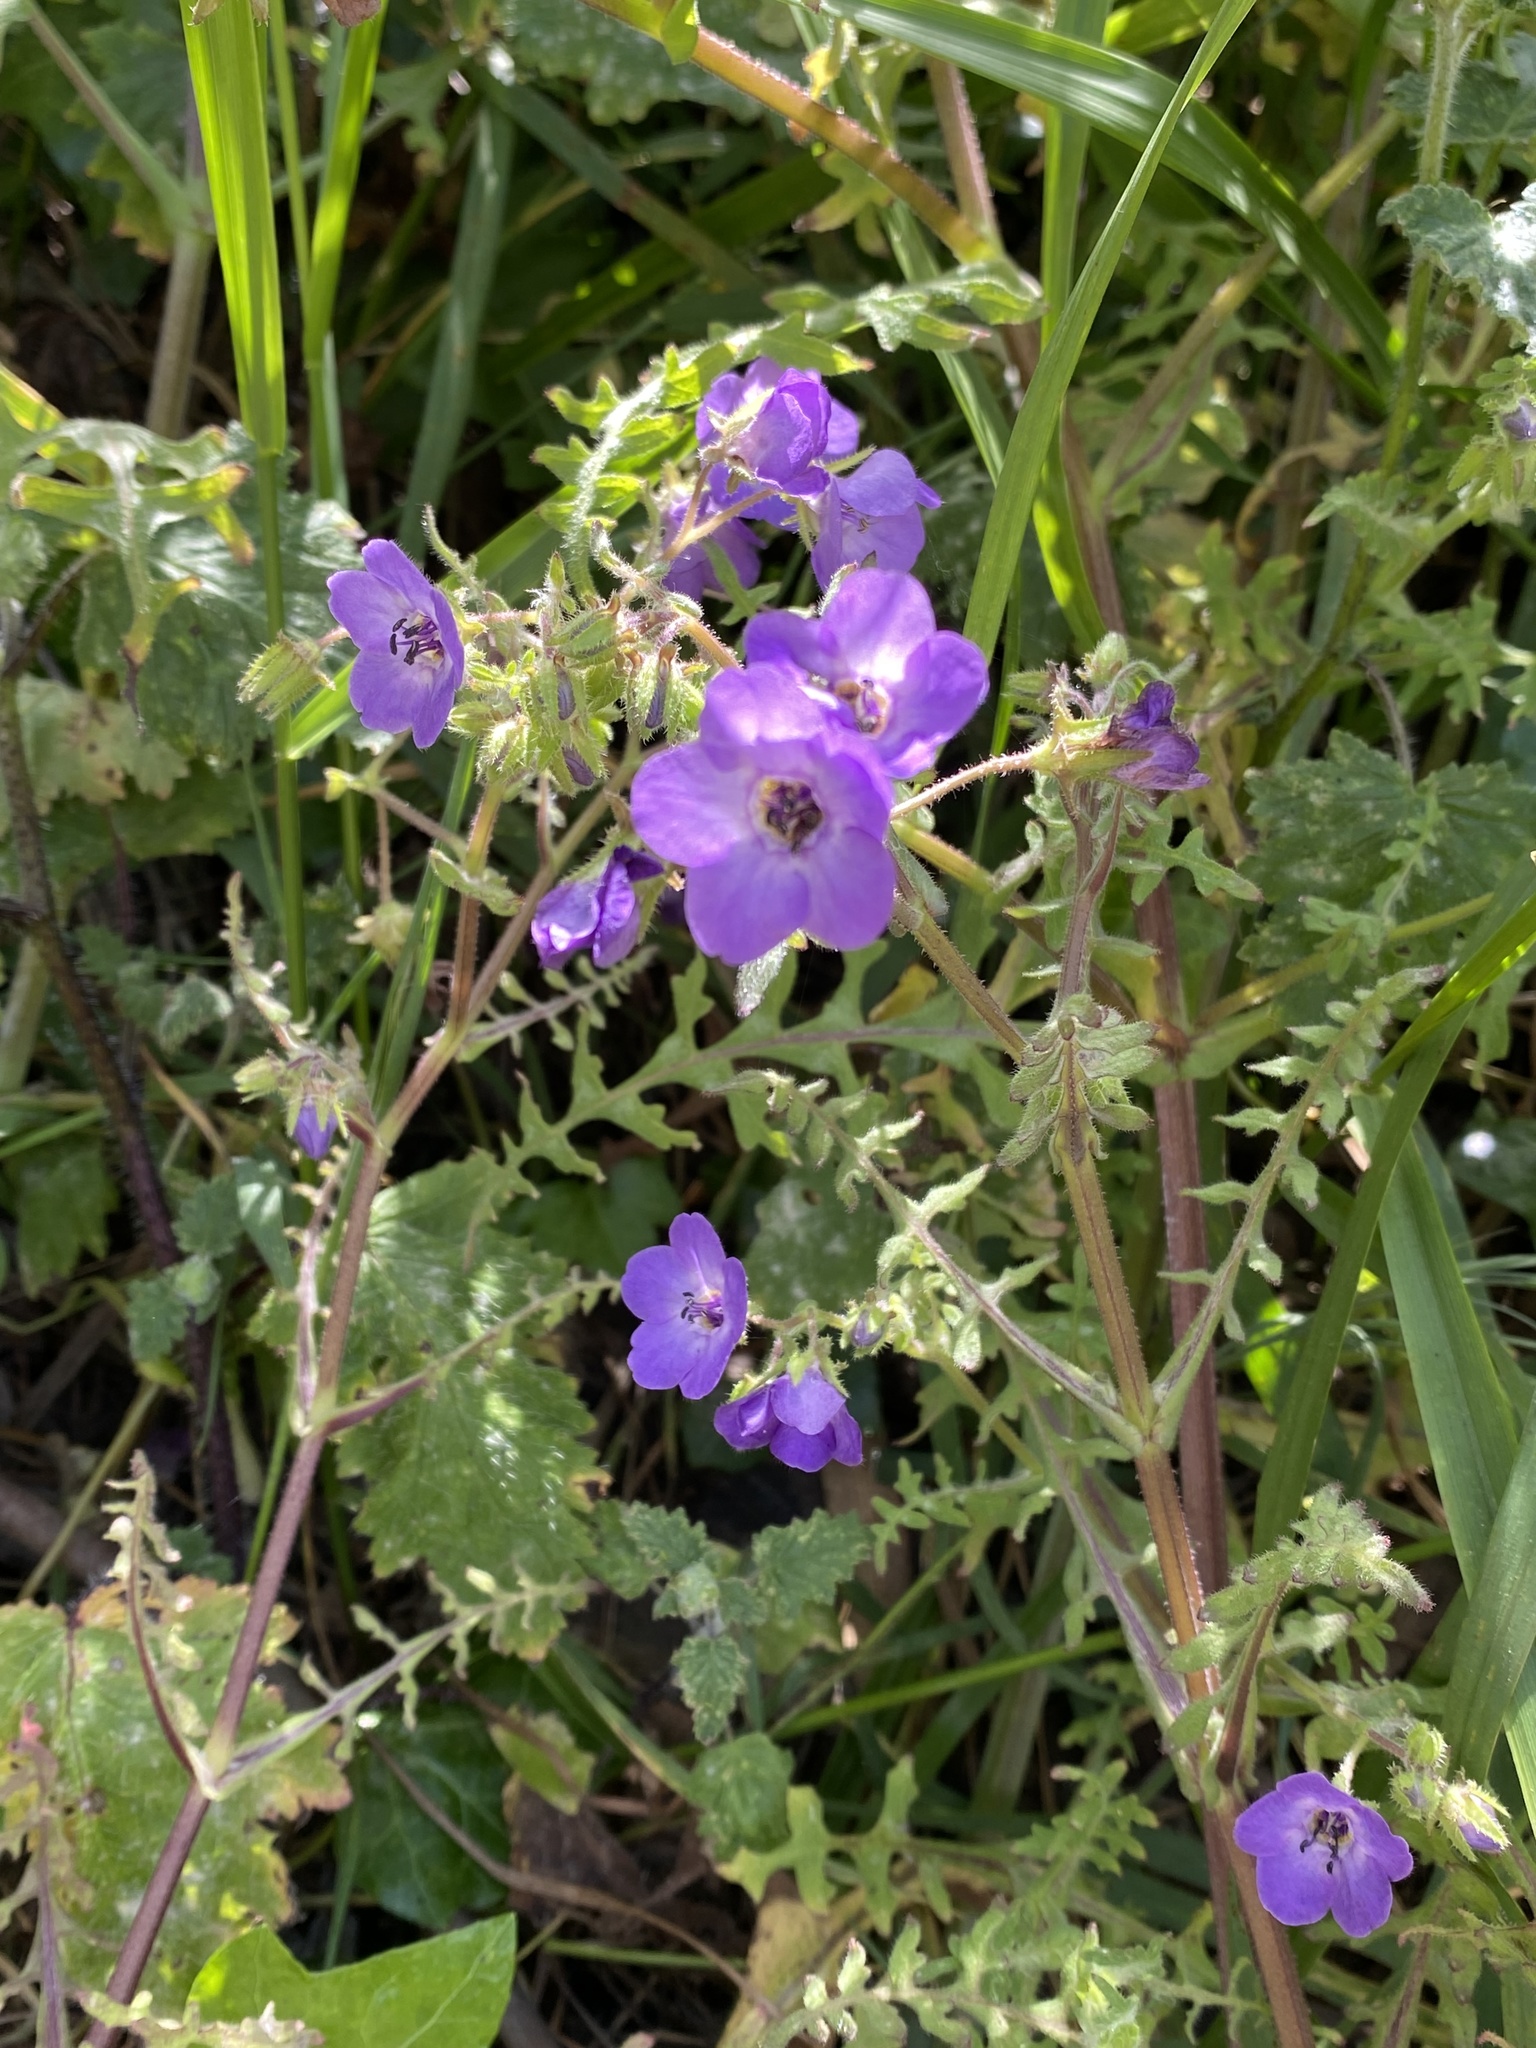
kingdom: Plantae
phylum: Tracheophyta
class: Magnoliopsida
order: Boraginales
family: Hydrophyllaceae
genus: Pholistoma
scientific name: Pholistoma auritum
